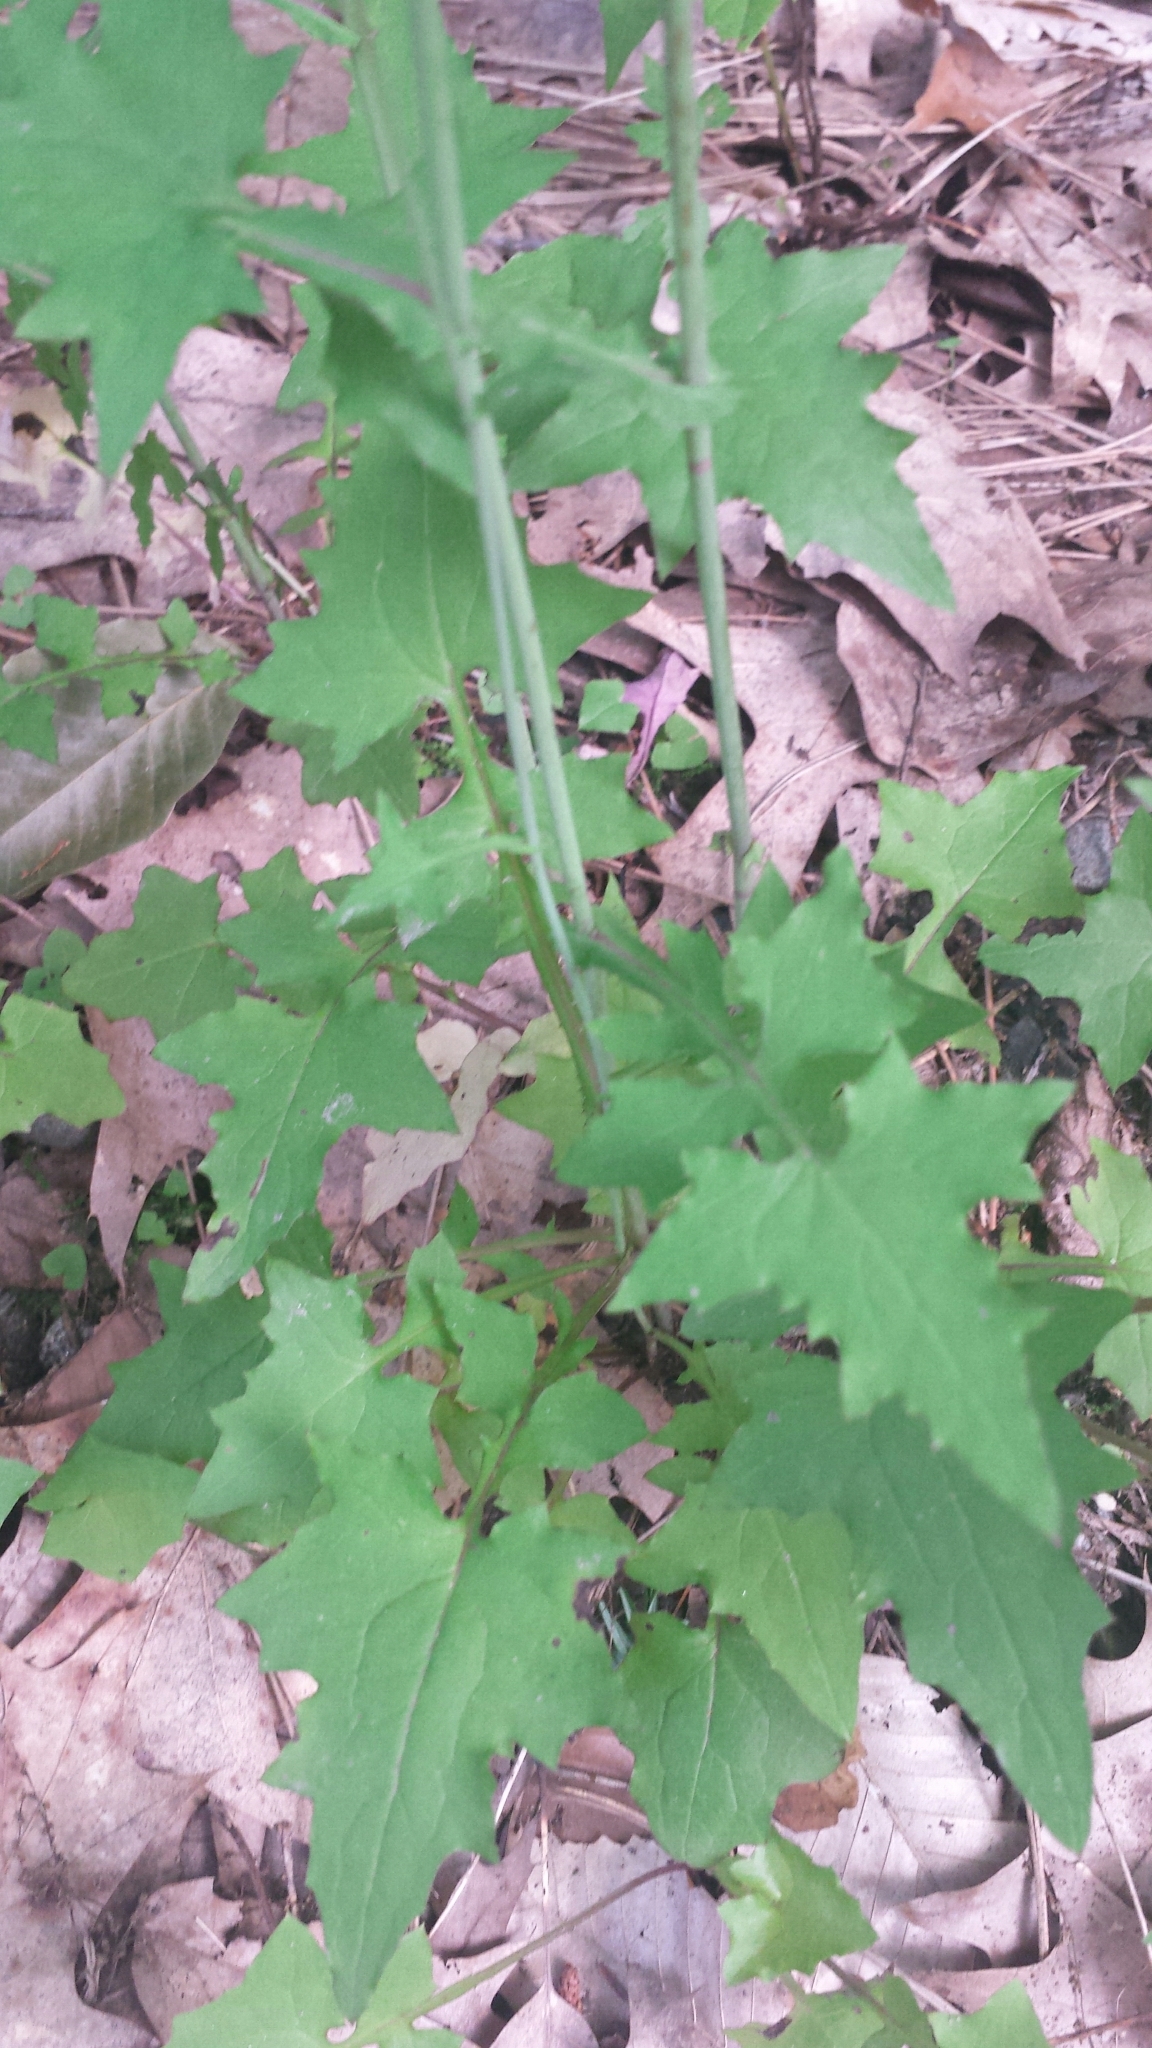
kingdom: Plantae
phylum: Tracheophyta
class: Magnoliopsida
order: Asterales
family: Asteraceae
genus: Mycelis
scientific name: Mycelis muralis
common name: Wall lettuce
